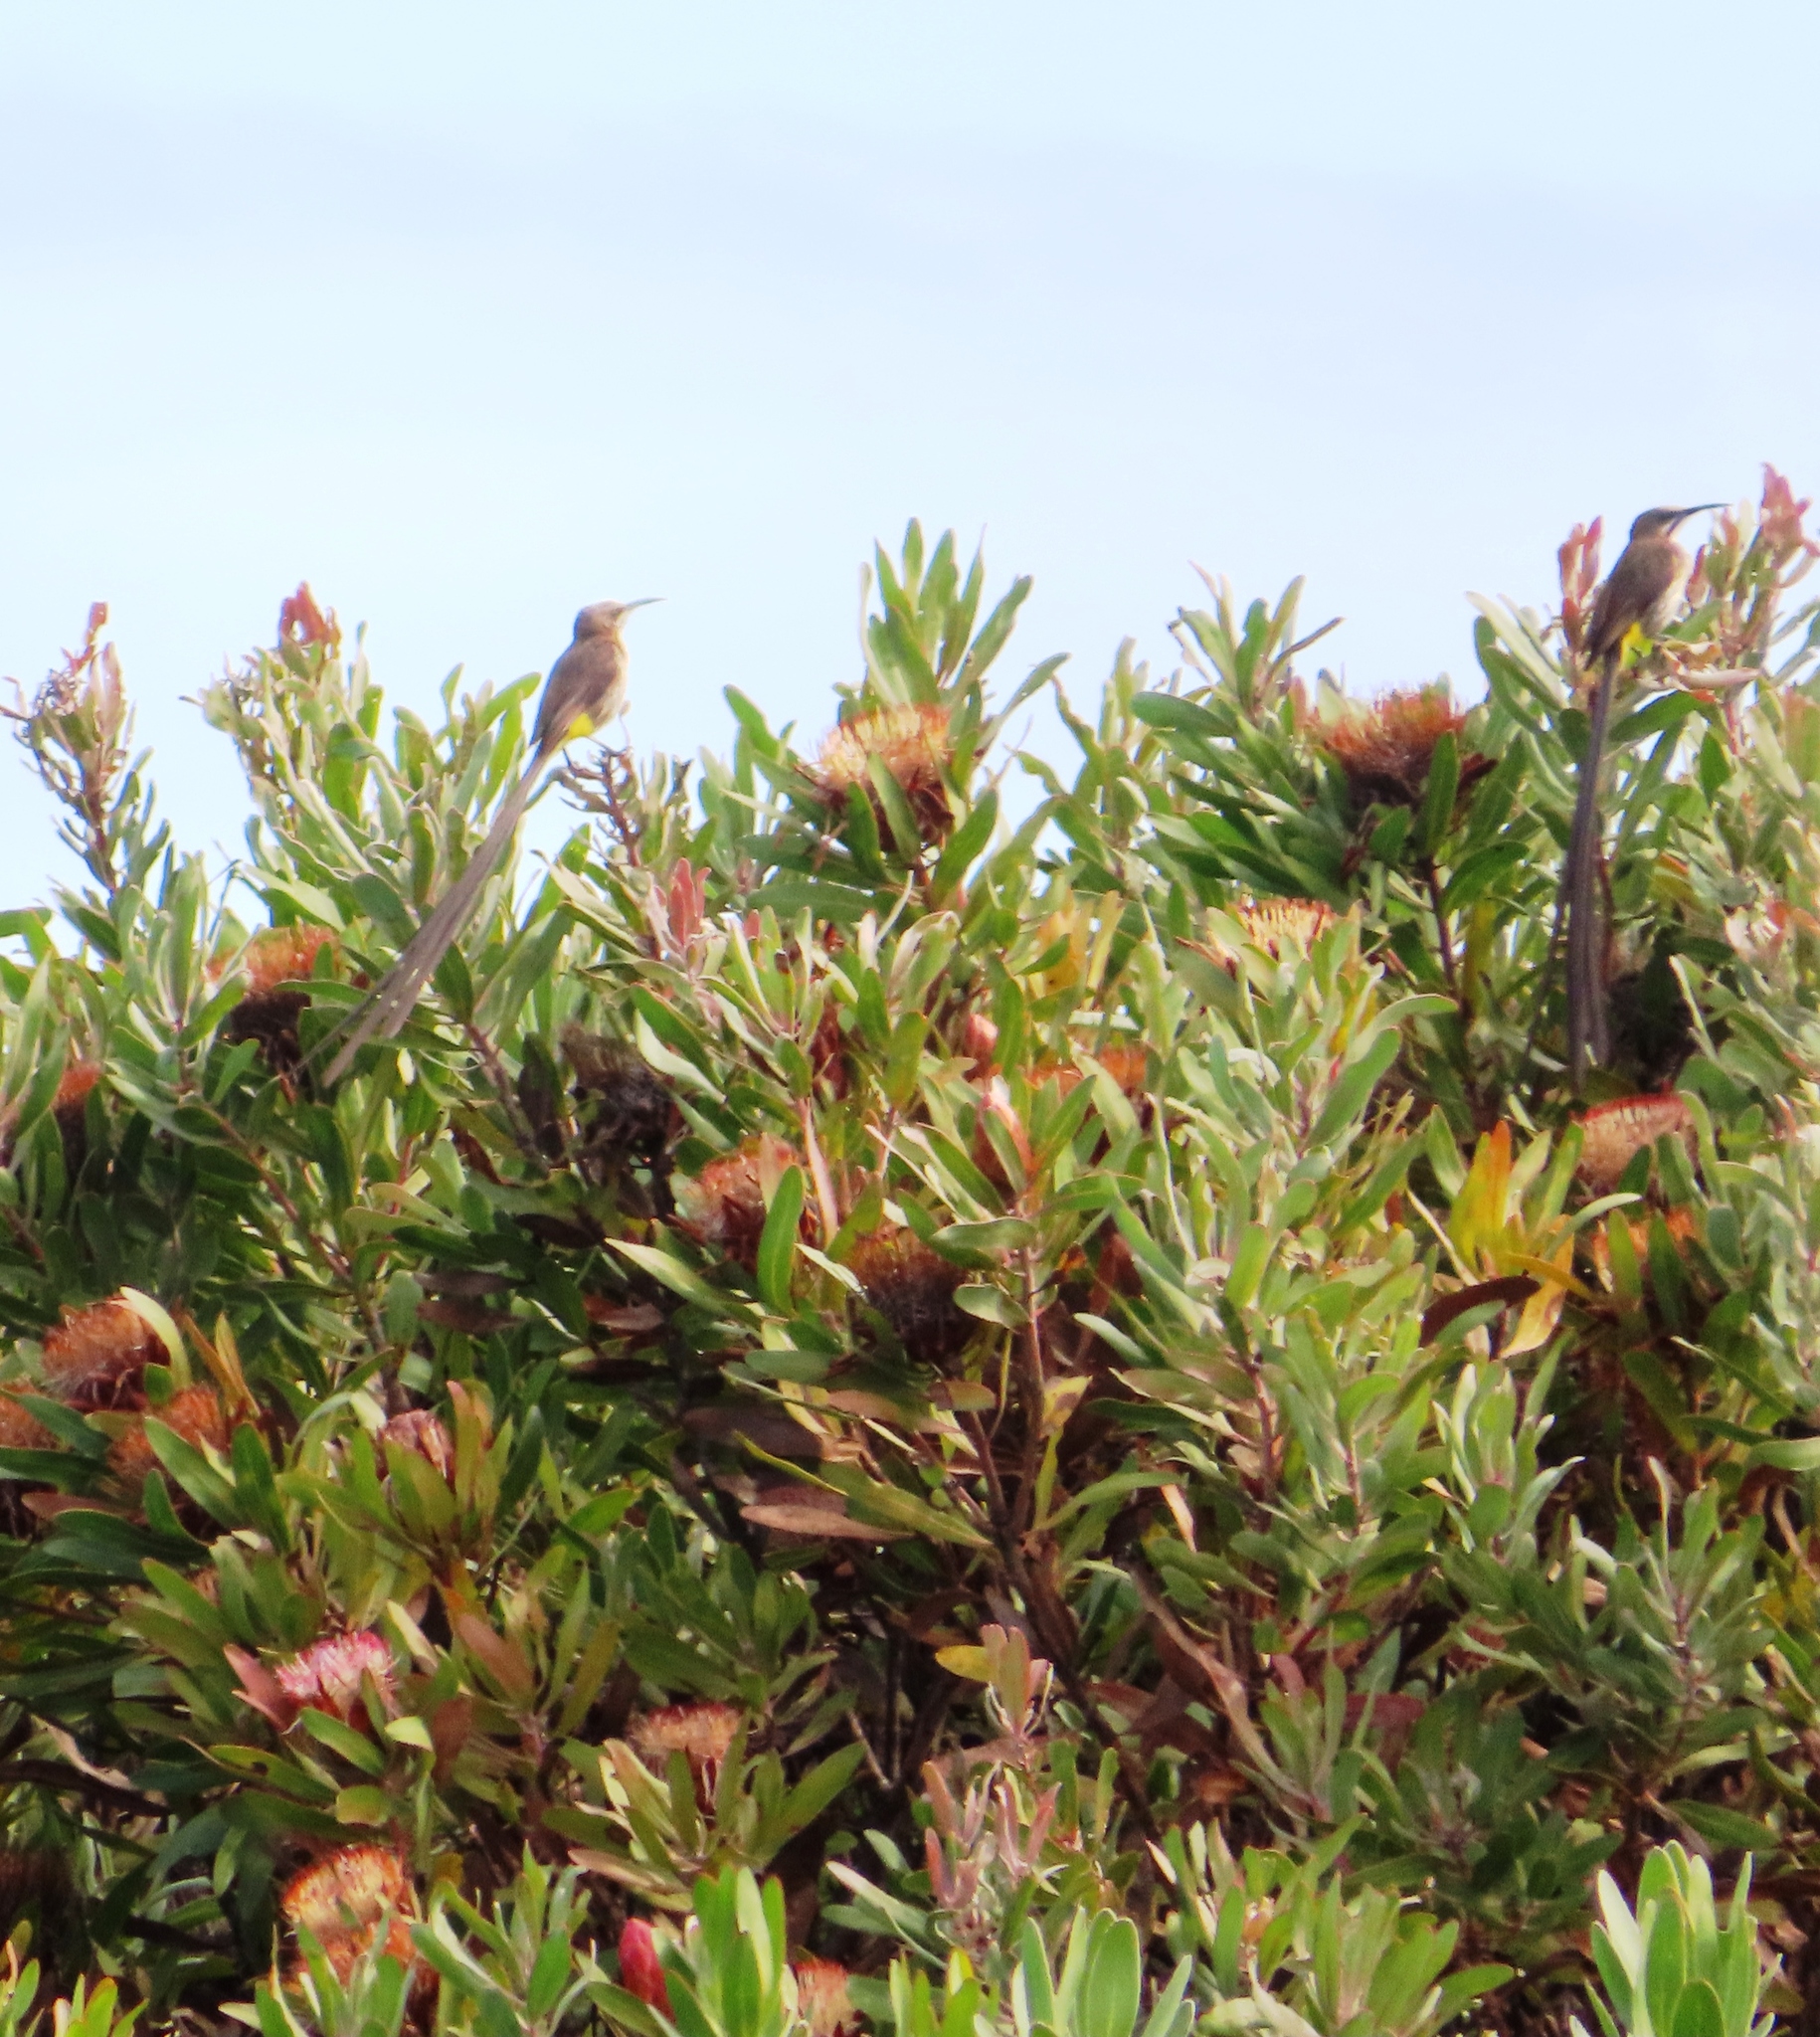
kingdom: Animalia
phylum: Chordata
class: Aves
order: Passeriformes
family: Promeropidae
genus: Promerops
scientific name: Promerops cafer
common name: Cape sugarbird
